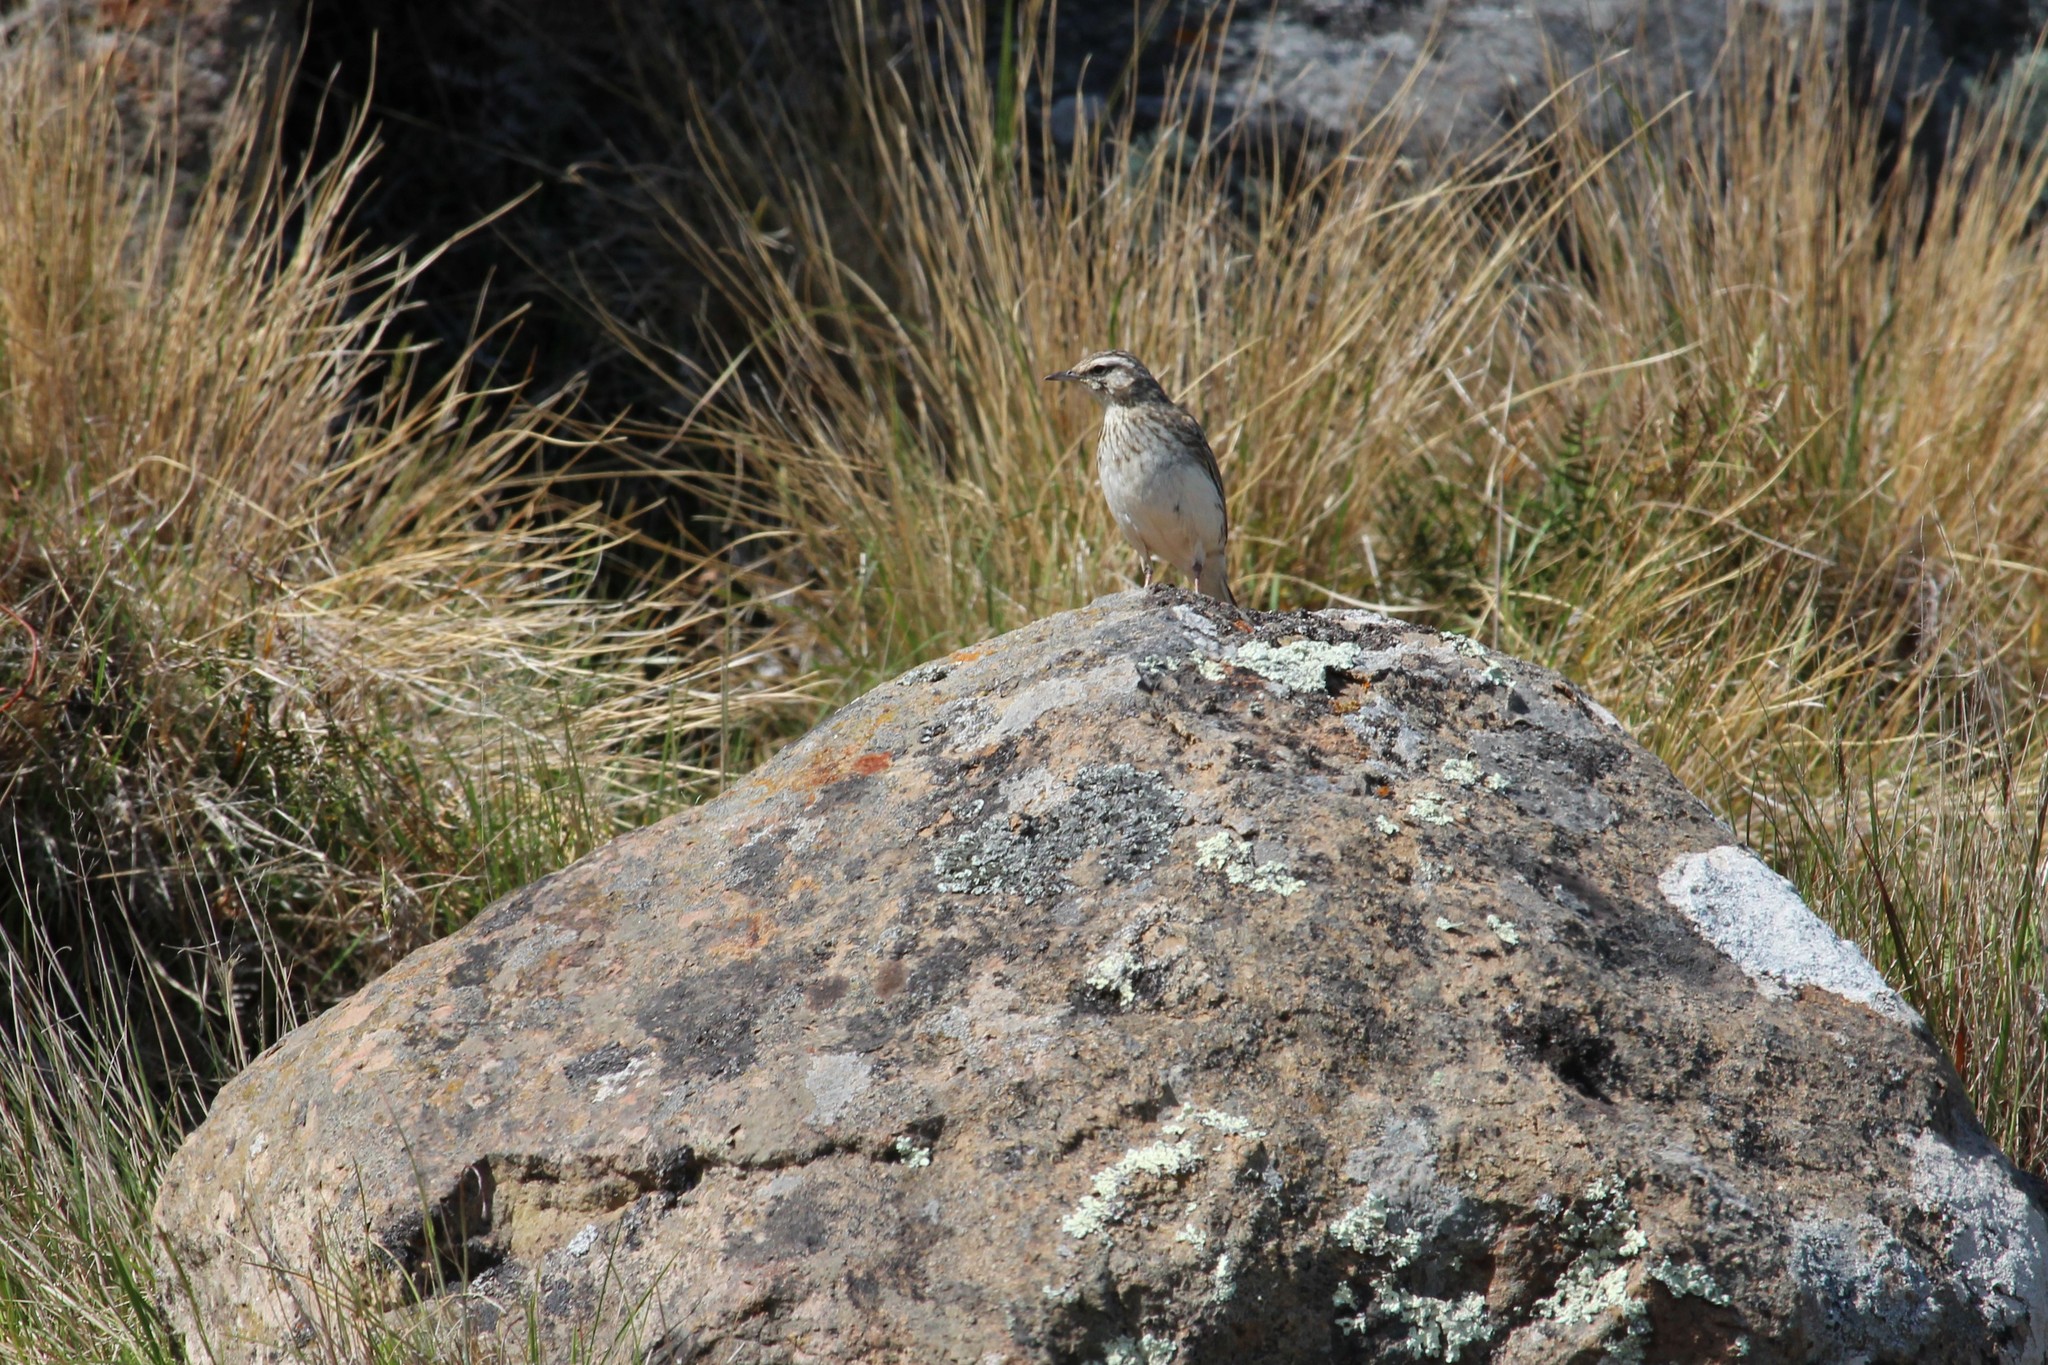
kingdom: Animalia
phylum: Chordata
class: Aves
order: Passeriformes
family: Motacillidae
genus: Anthus
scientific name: Anthus novaeseelandiae
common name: New zealand pipit
